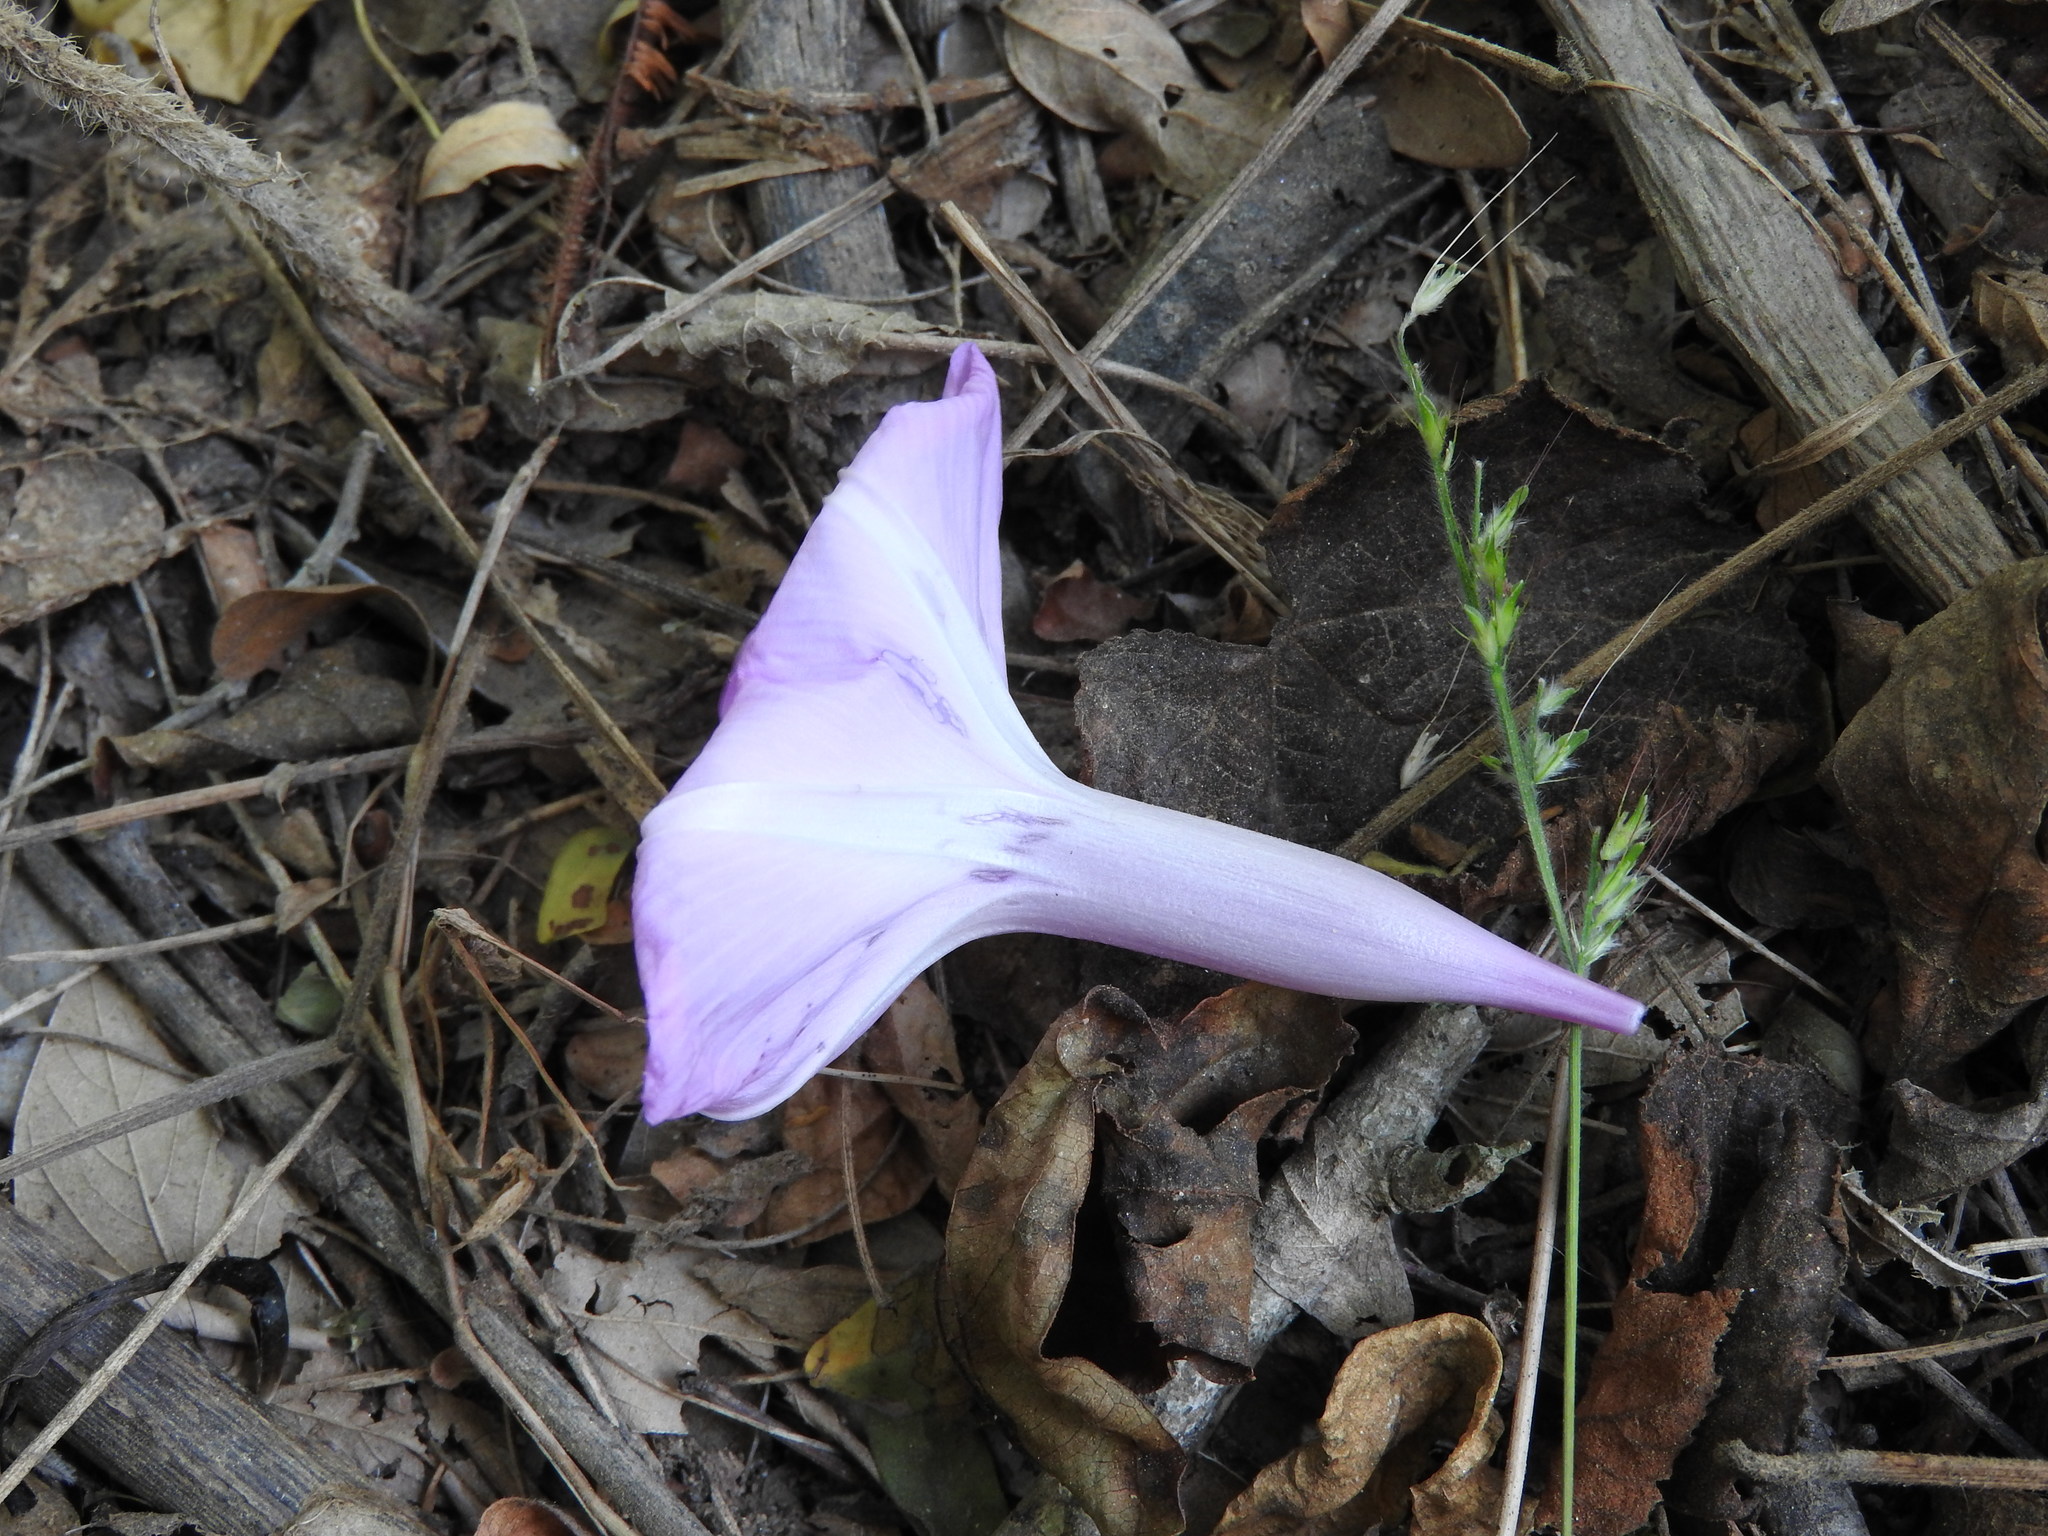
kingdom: Plantae
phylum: Tracheophyta
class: Magnoliopsida
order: Solanales
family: Convolvulaceae
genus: Ipomoea
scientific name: Ipomoea splendor-sylvae
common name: Morning glory
